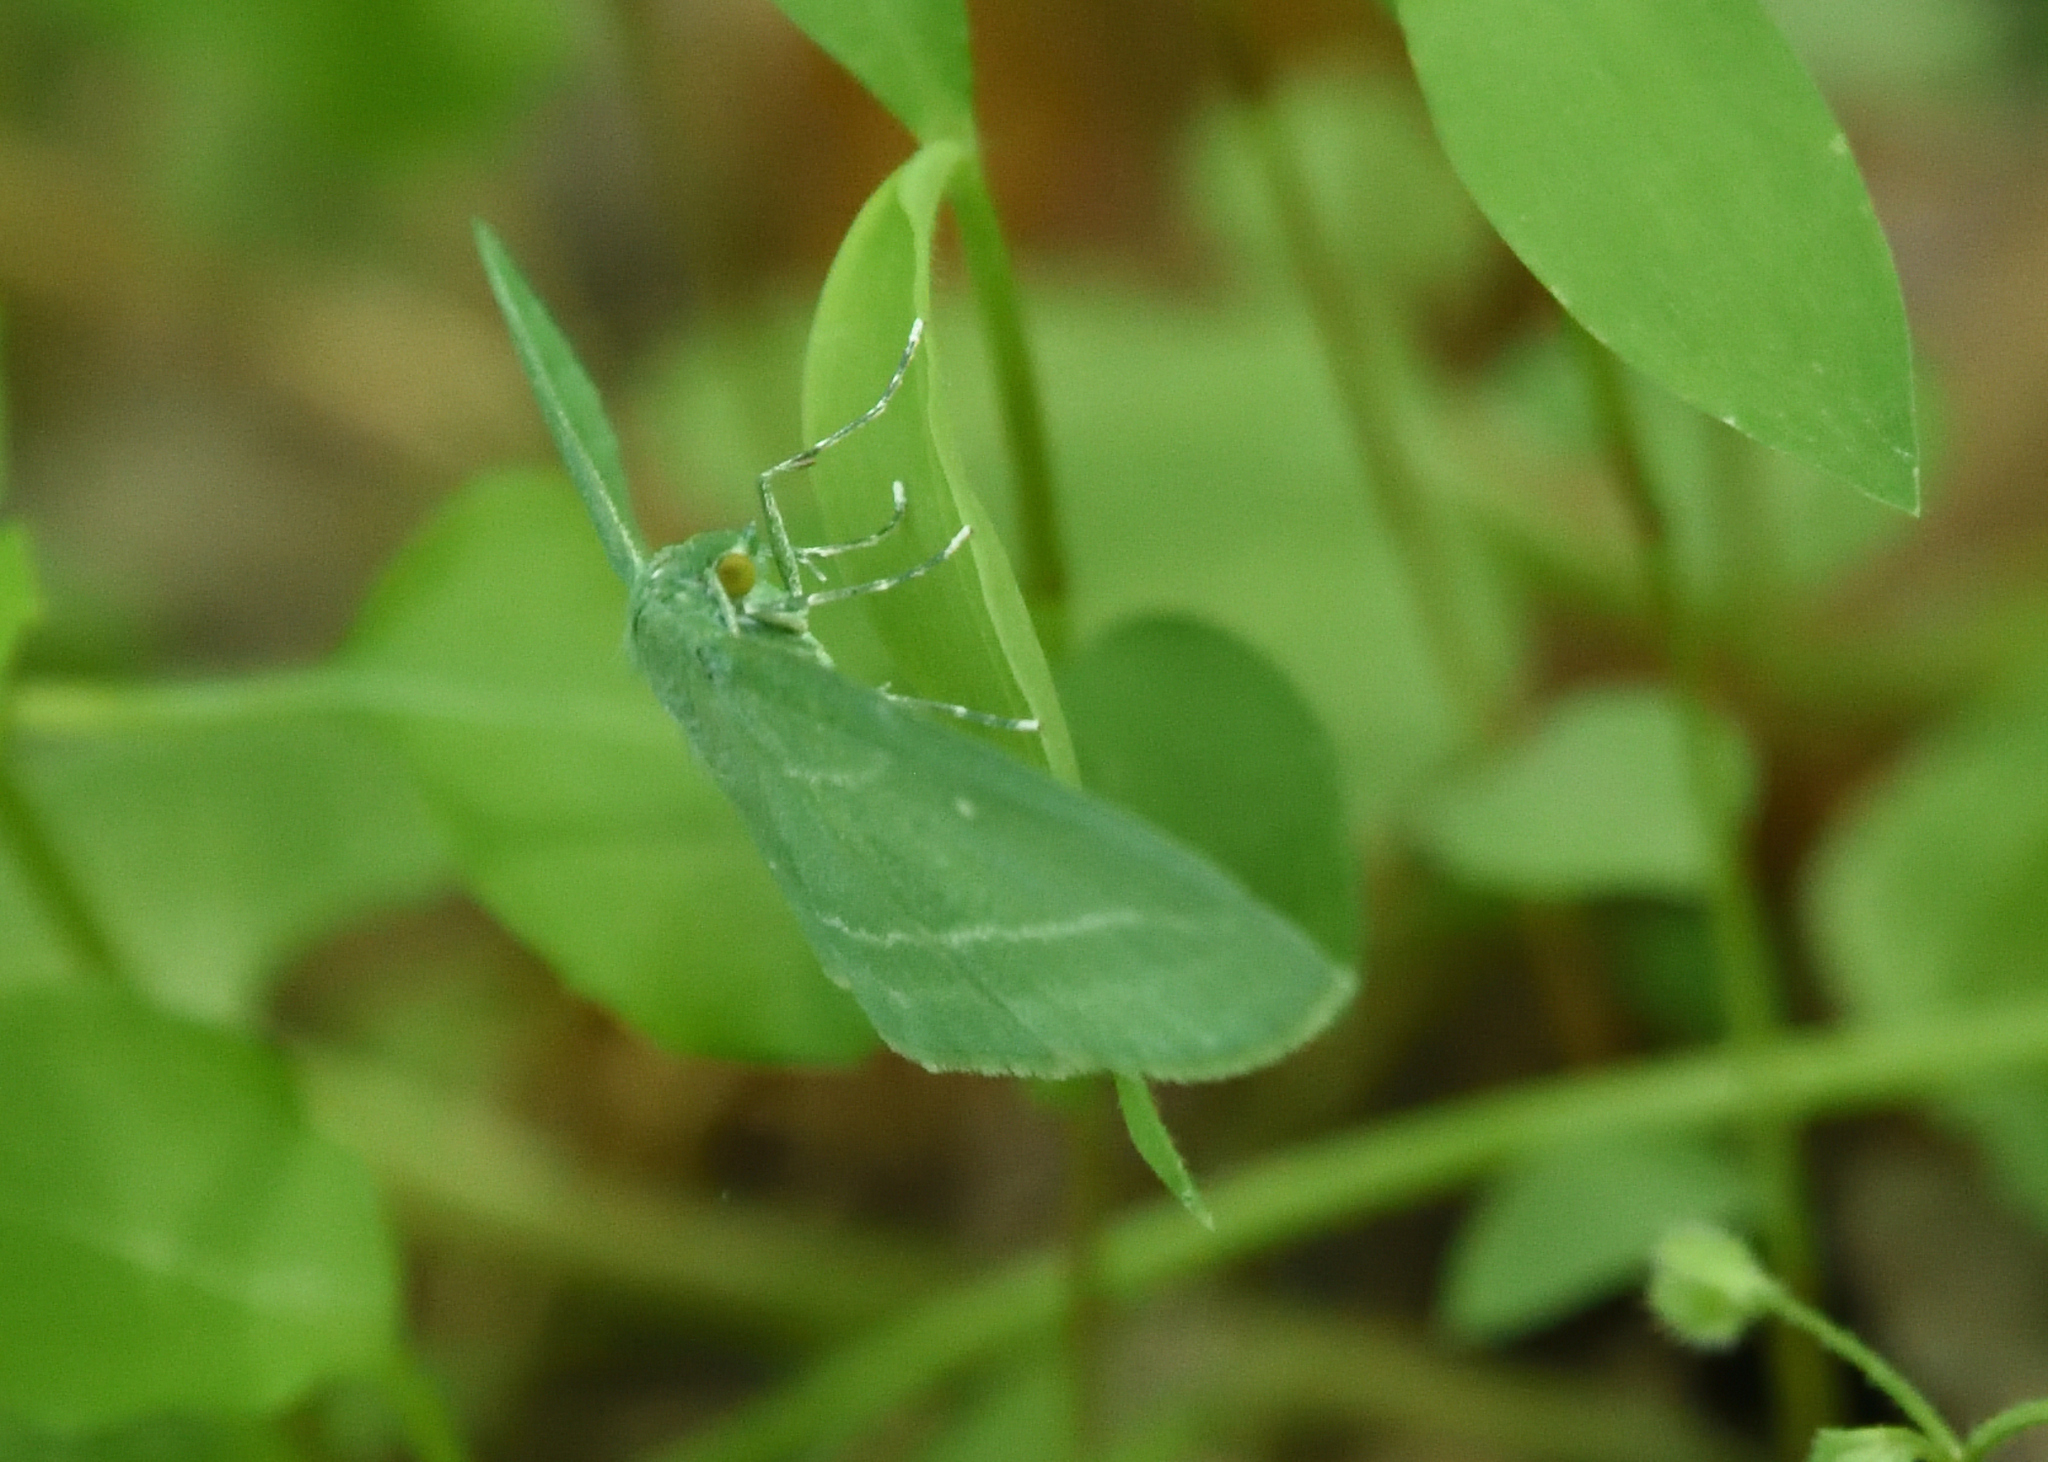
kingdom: Animalia
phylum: Arthropoda
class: Insecta
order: Lepidoptera
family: Geometridae
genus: Dyspteris
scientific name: Dyspteris abortivaria
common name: Bad-wing
